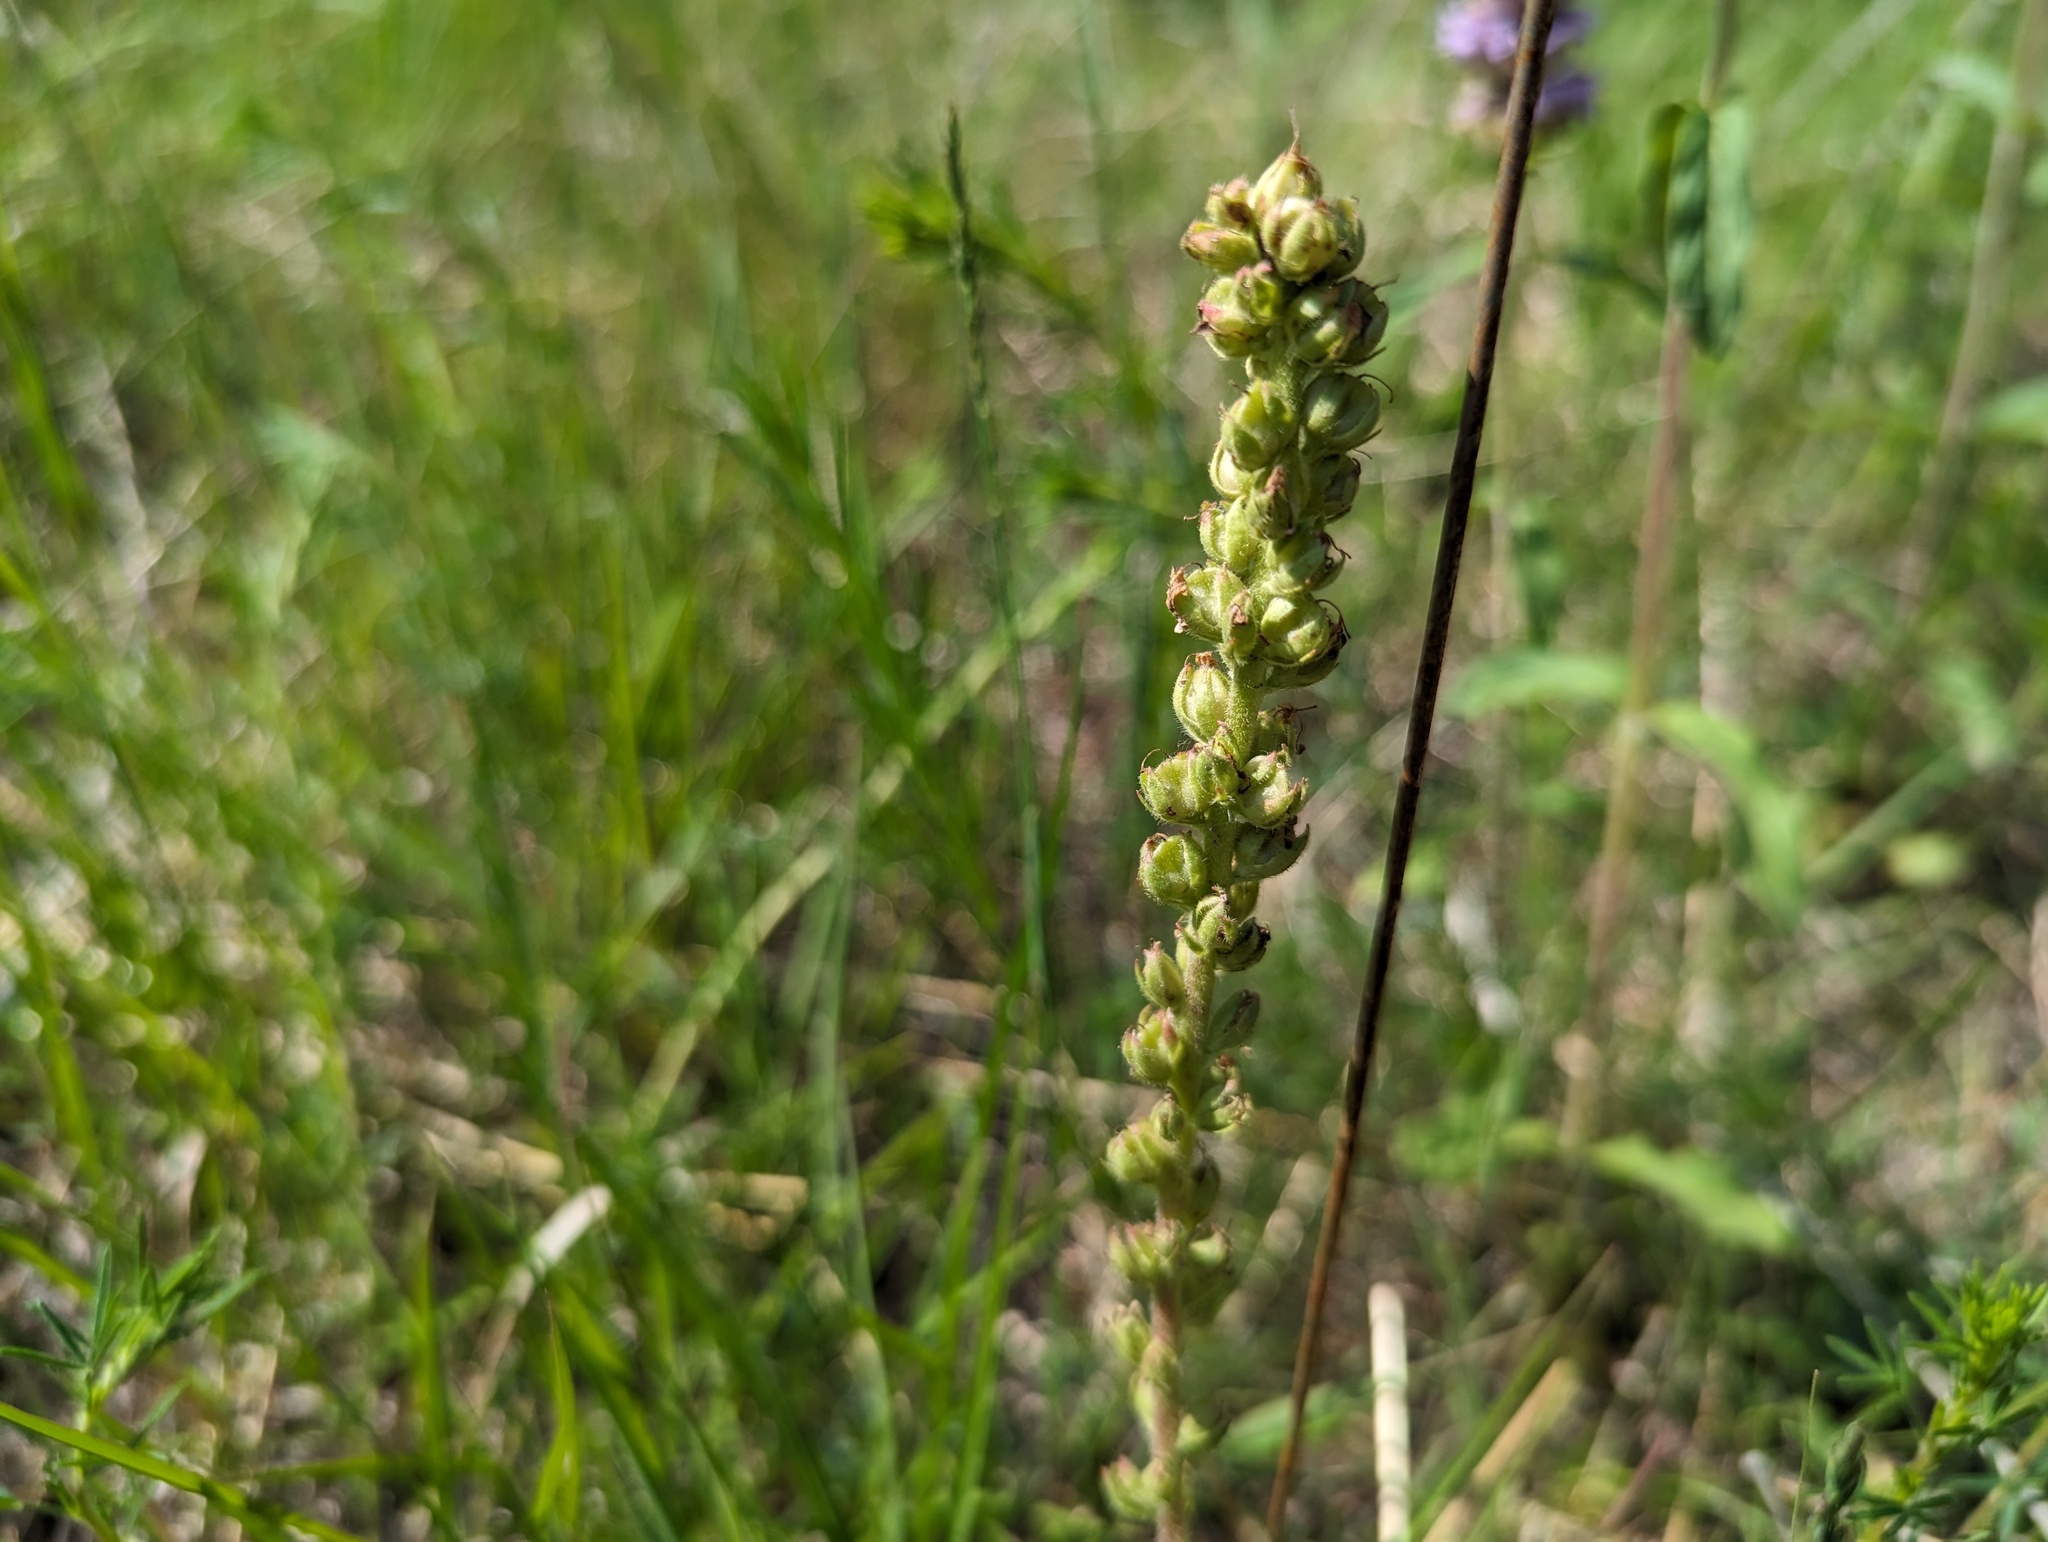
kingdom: Plantae
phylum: Tracheophyta
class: Magnoliopsida
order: Lamiales
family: Plantaginaceae
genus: Synthyris
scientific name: Synthyris bullii
